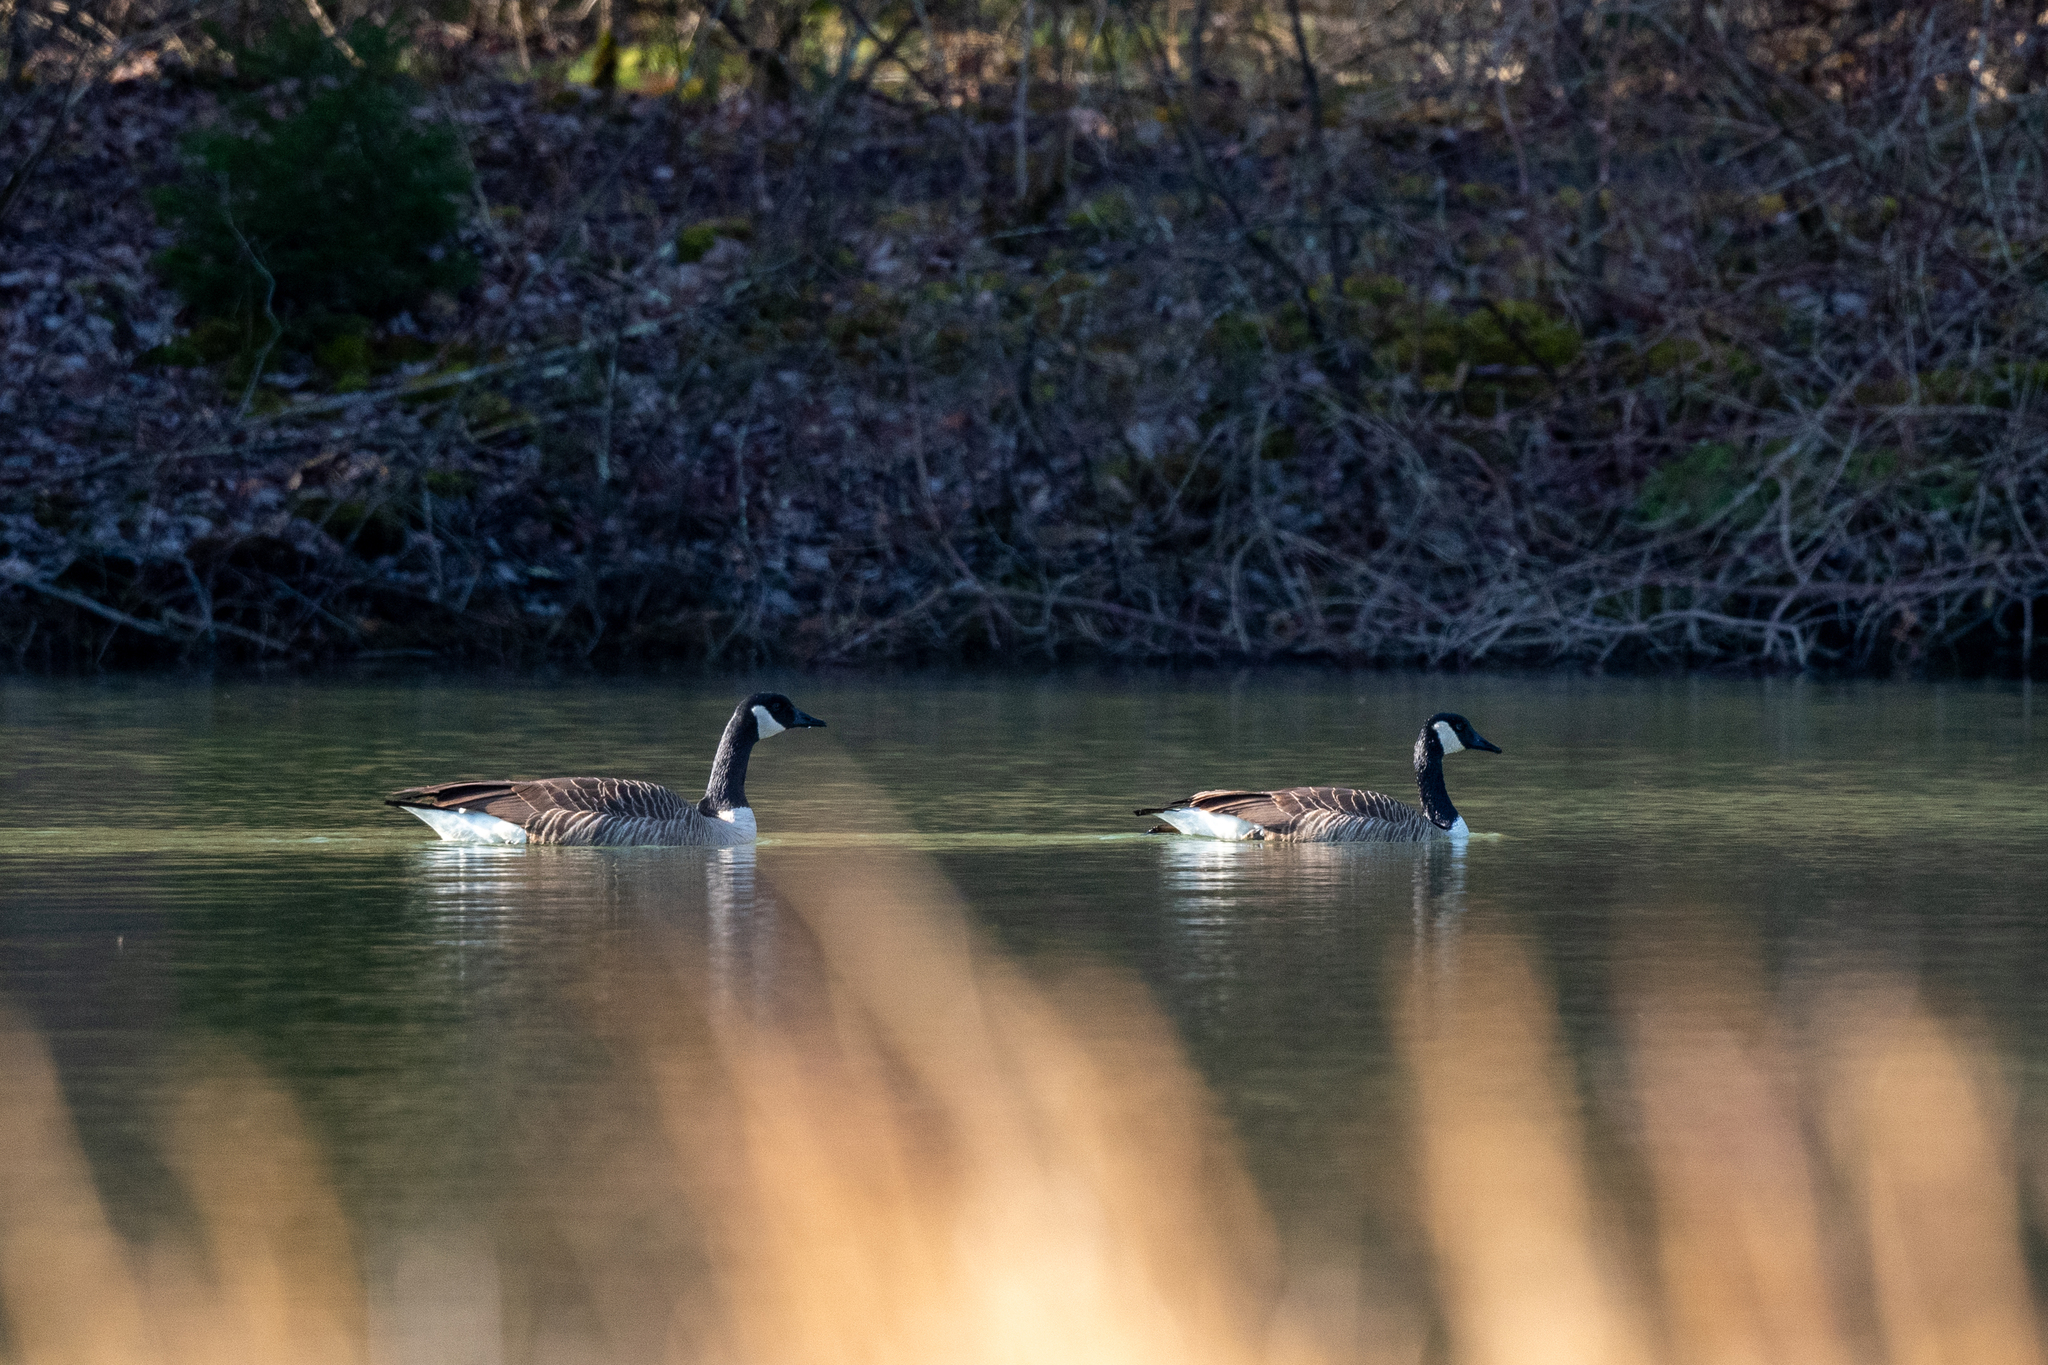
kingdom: Animalia
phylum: Chordata
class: Aves
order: Anseriformes
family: Anatidae
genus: Branta
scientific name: Branta canadensis
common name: Canada goose
